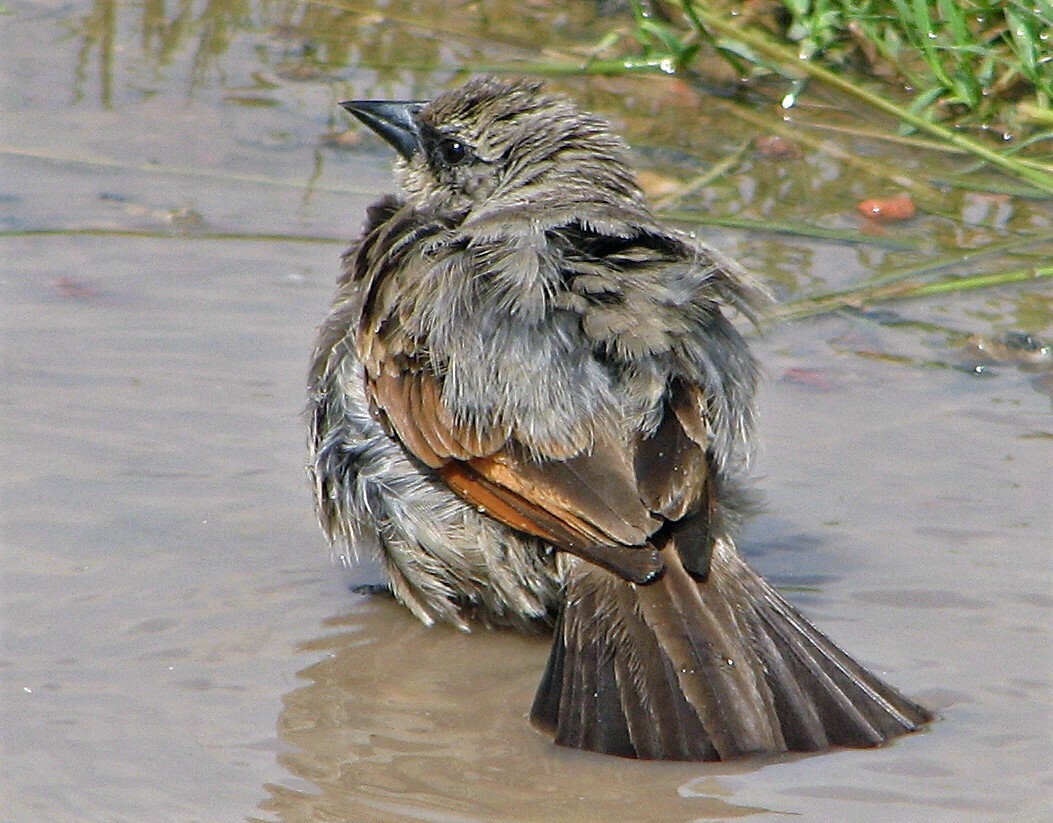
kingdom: Animalia
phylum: Chordata
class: Aves
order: Passeriformes
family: Icteridae
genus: Agelaioides
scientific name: Agelaioides badius
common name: Baywing
